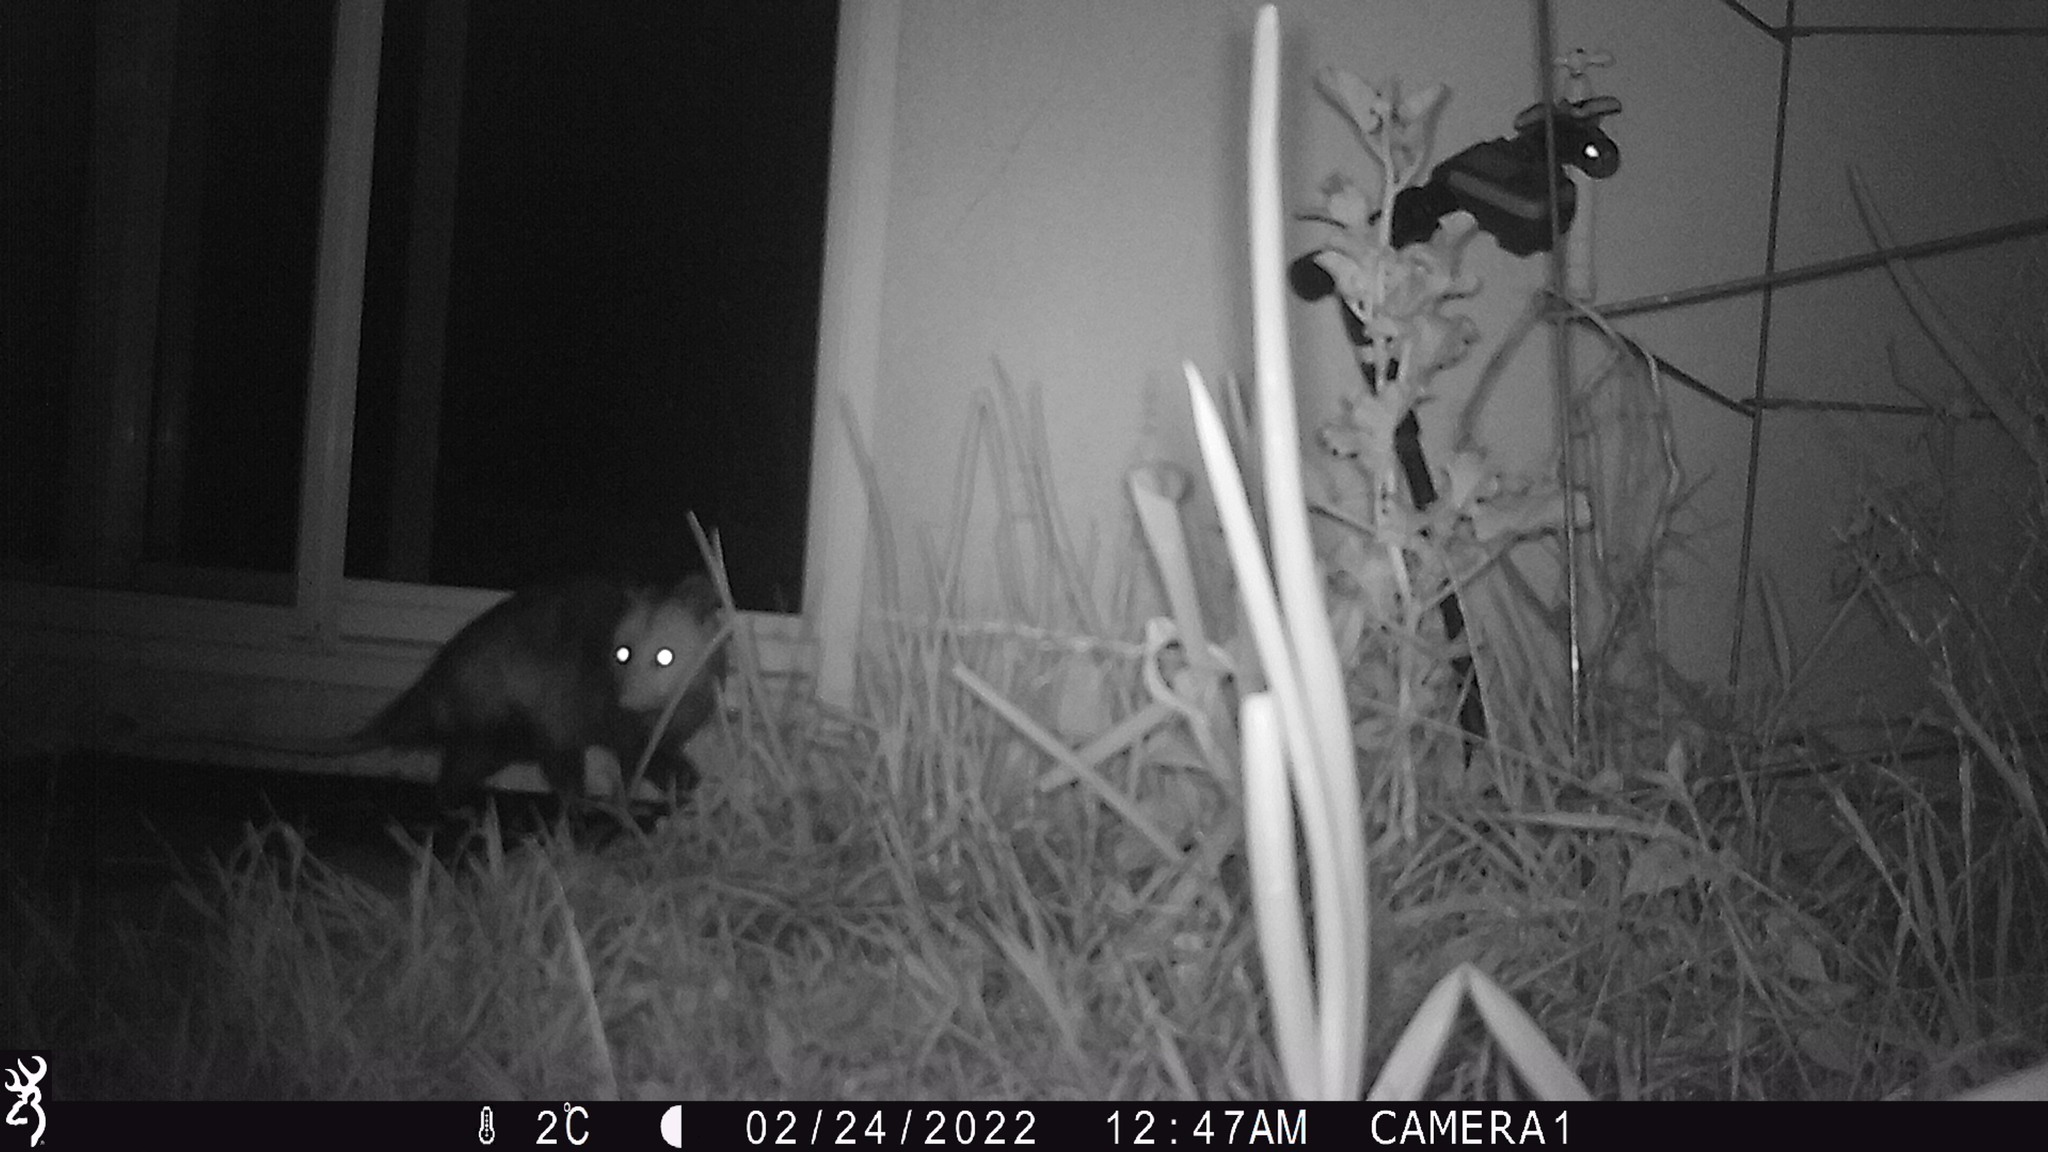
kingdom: Animalia
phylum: Chordata
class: Mammalia
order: Didelphimorphia
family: Didelphidae
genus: Didelphis
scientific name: Didelphis virginiana
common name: Virginia opossum
